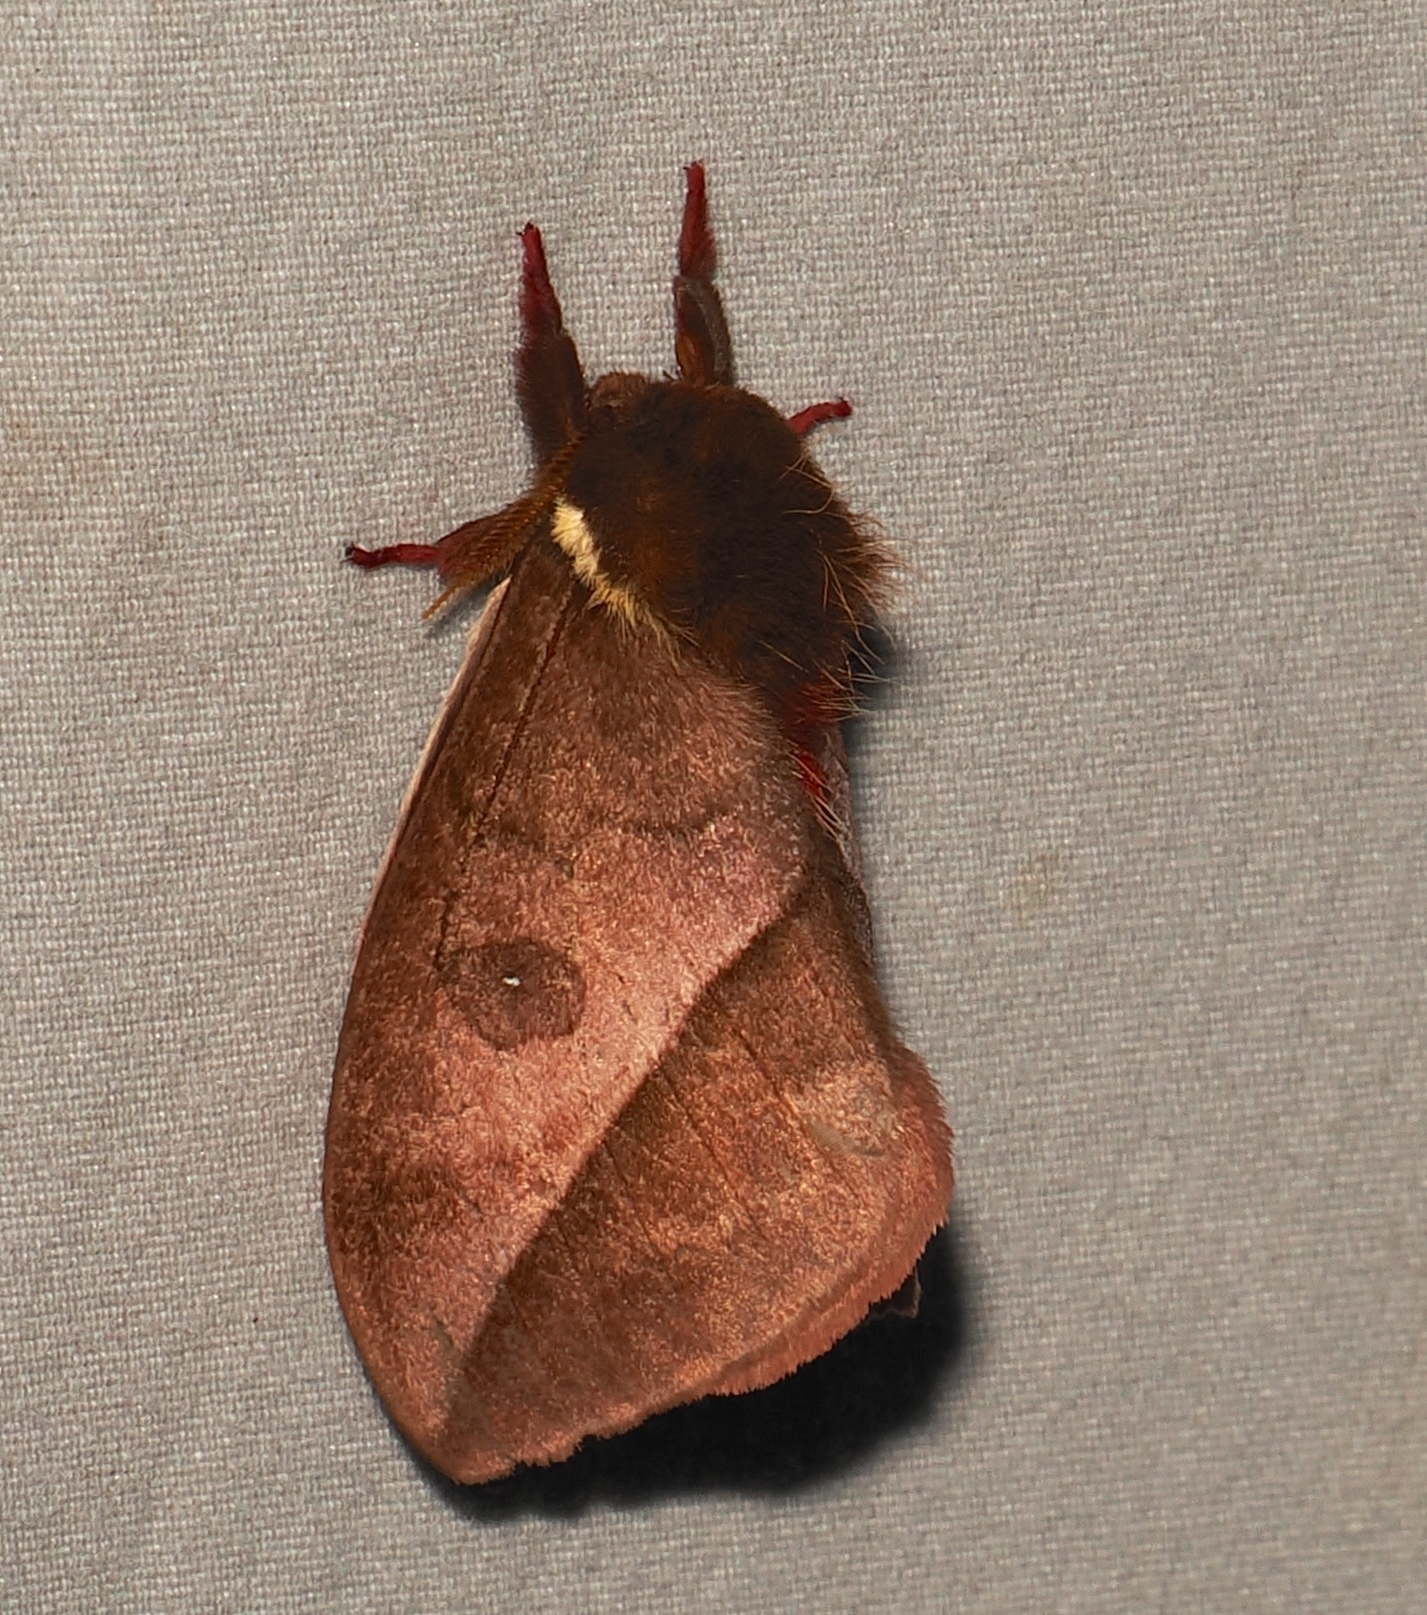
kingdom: Animalia
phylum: Arthropoda
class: Insecta
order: Lepidoptera
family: Saturniidae
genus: Automeris
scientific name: Automeris basalis
